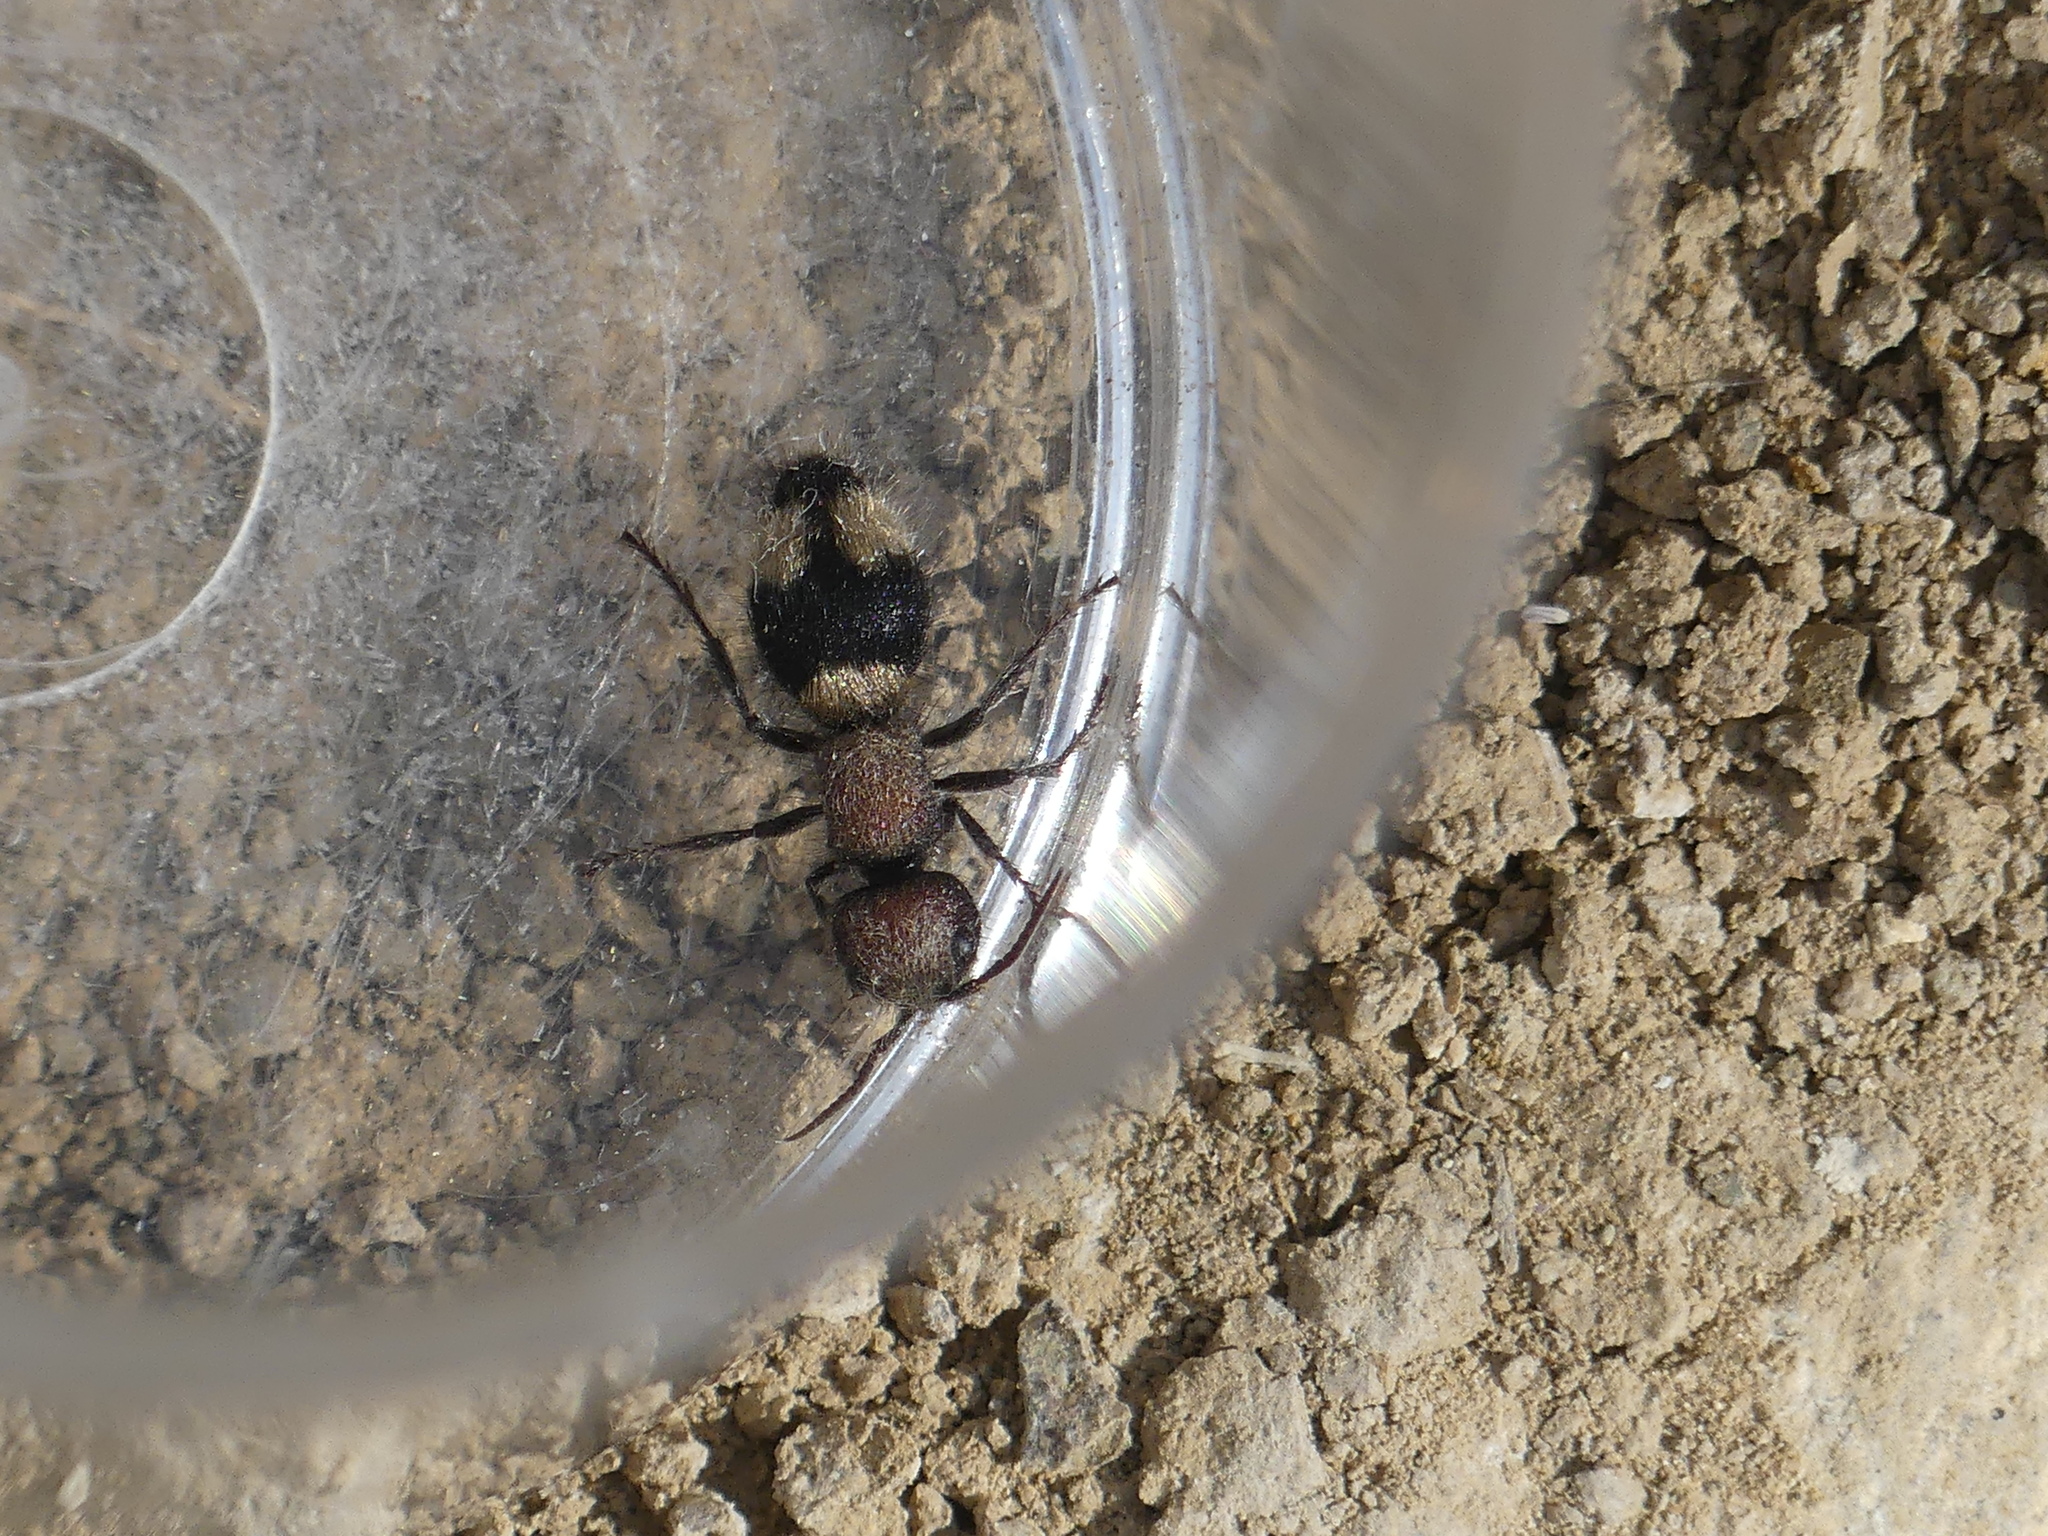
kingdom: Animalia
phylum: Arthropoda
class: Insecta
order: Hymenoptera
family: Mutillidae
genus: Mutilla
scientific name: Mutilla quinquemaculata
